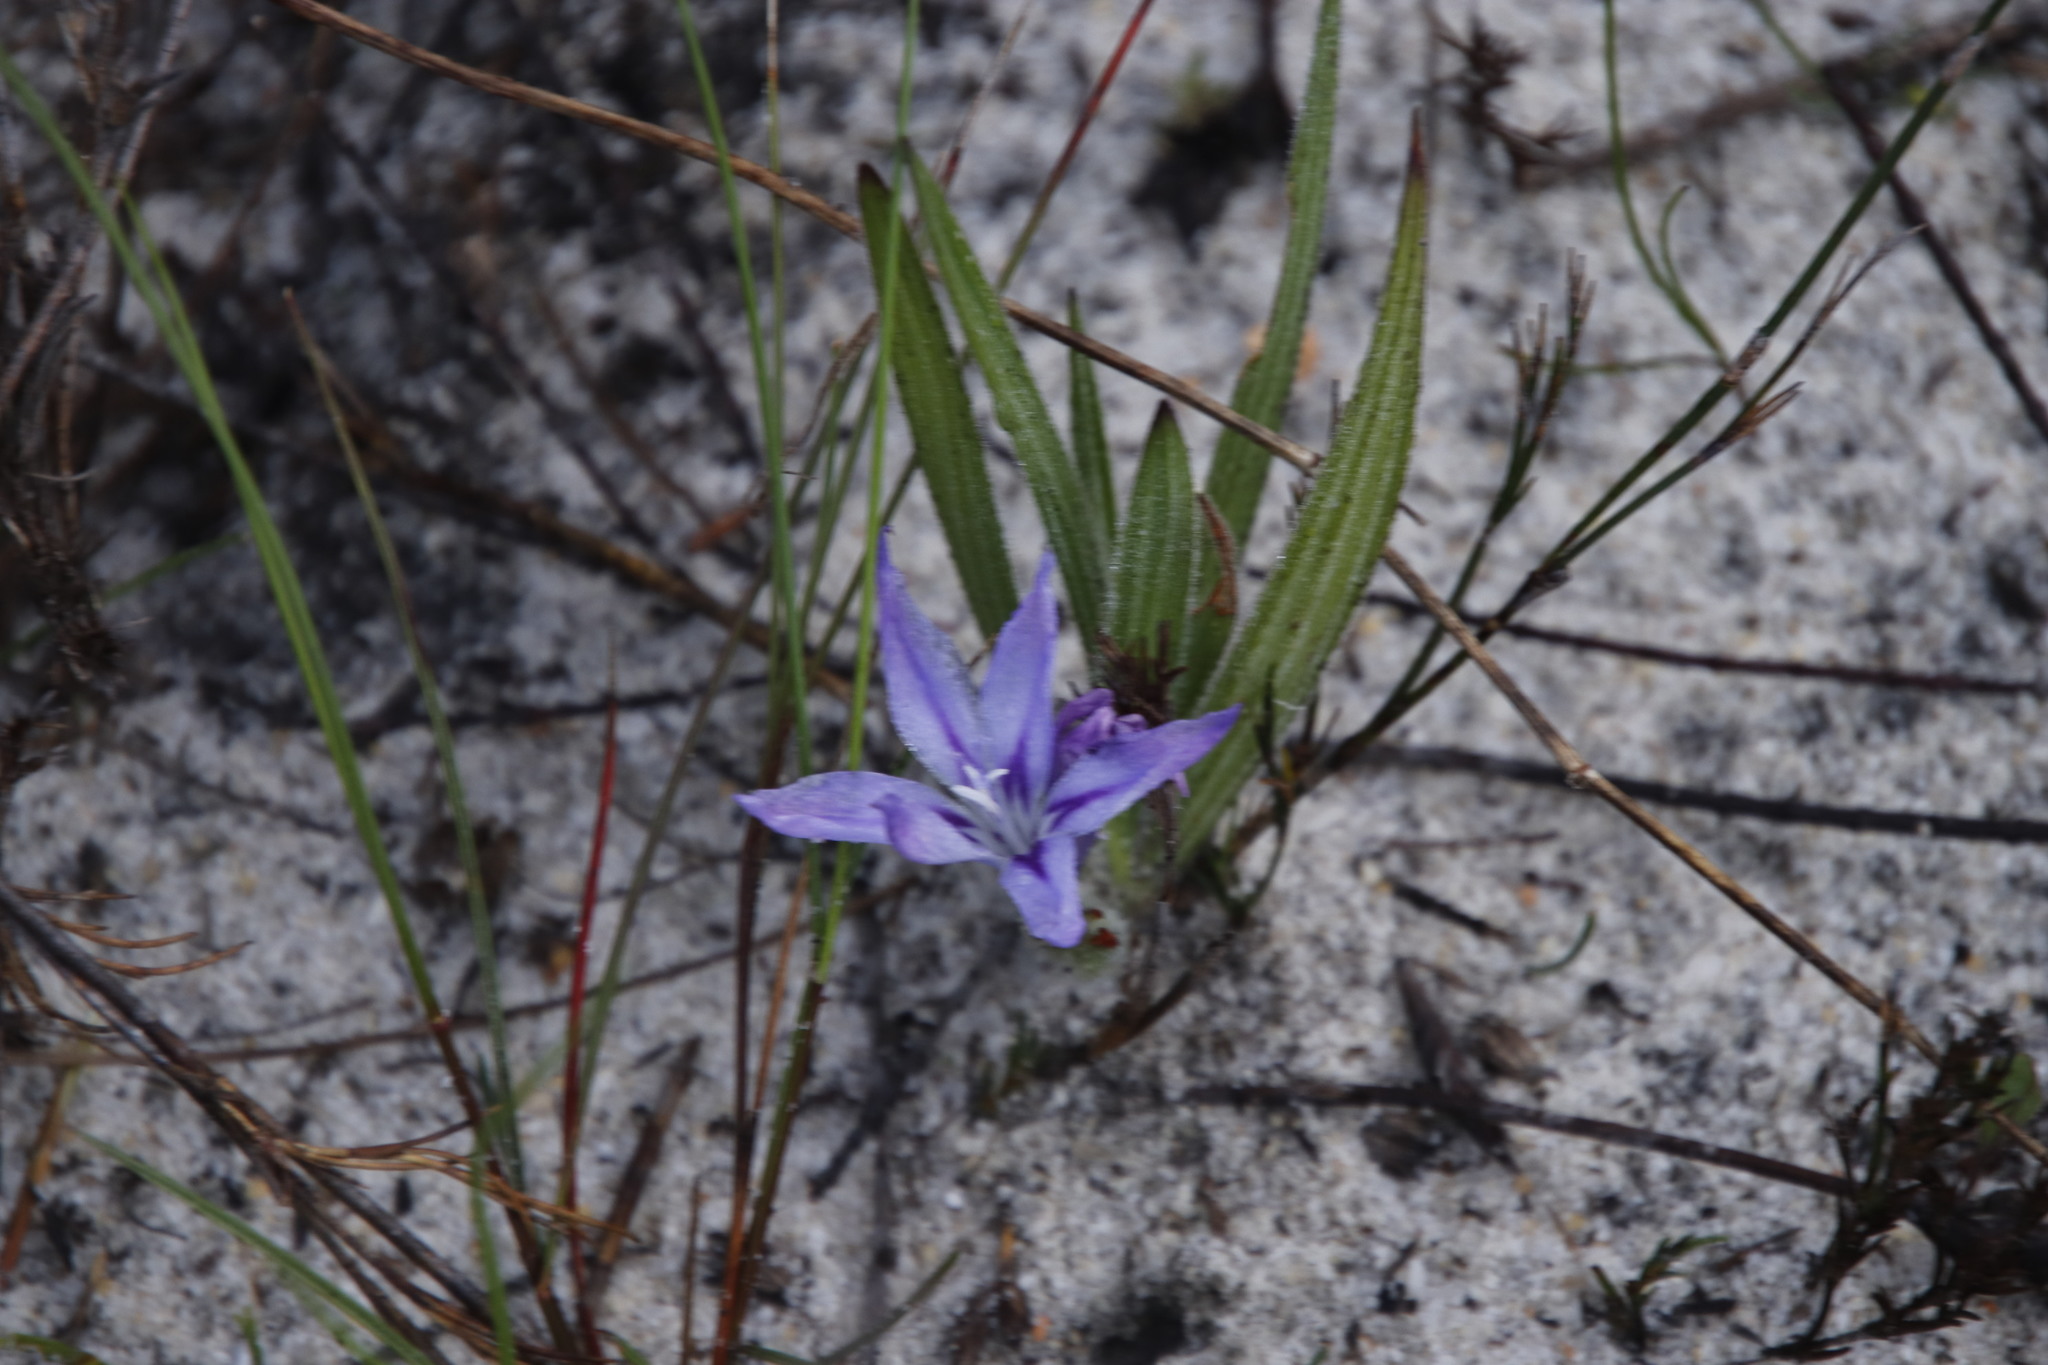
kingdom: Plantae
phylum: Tracheophyta
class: Liliopsida
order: Asparagales
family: Iridaceae
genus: Babiana
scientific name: Babiana villosula
